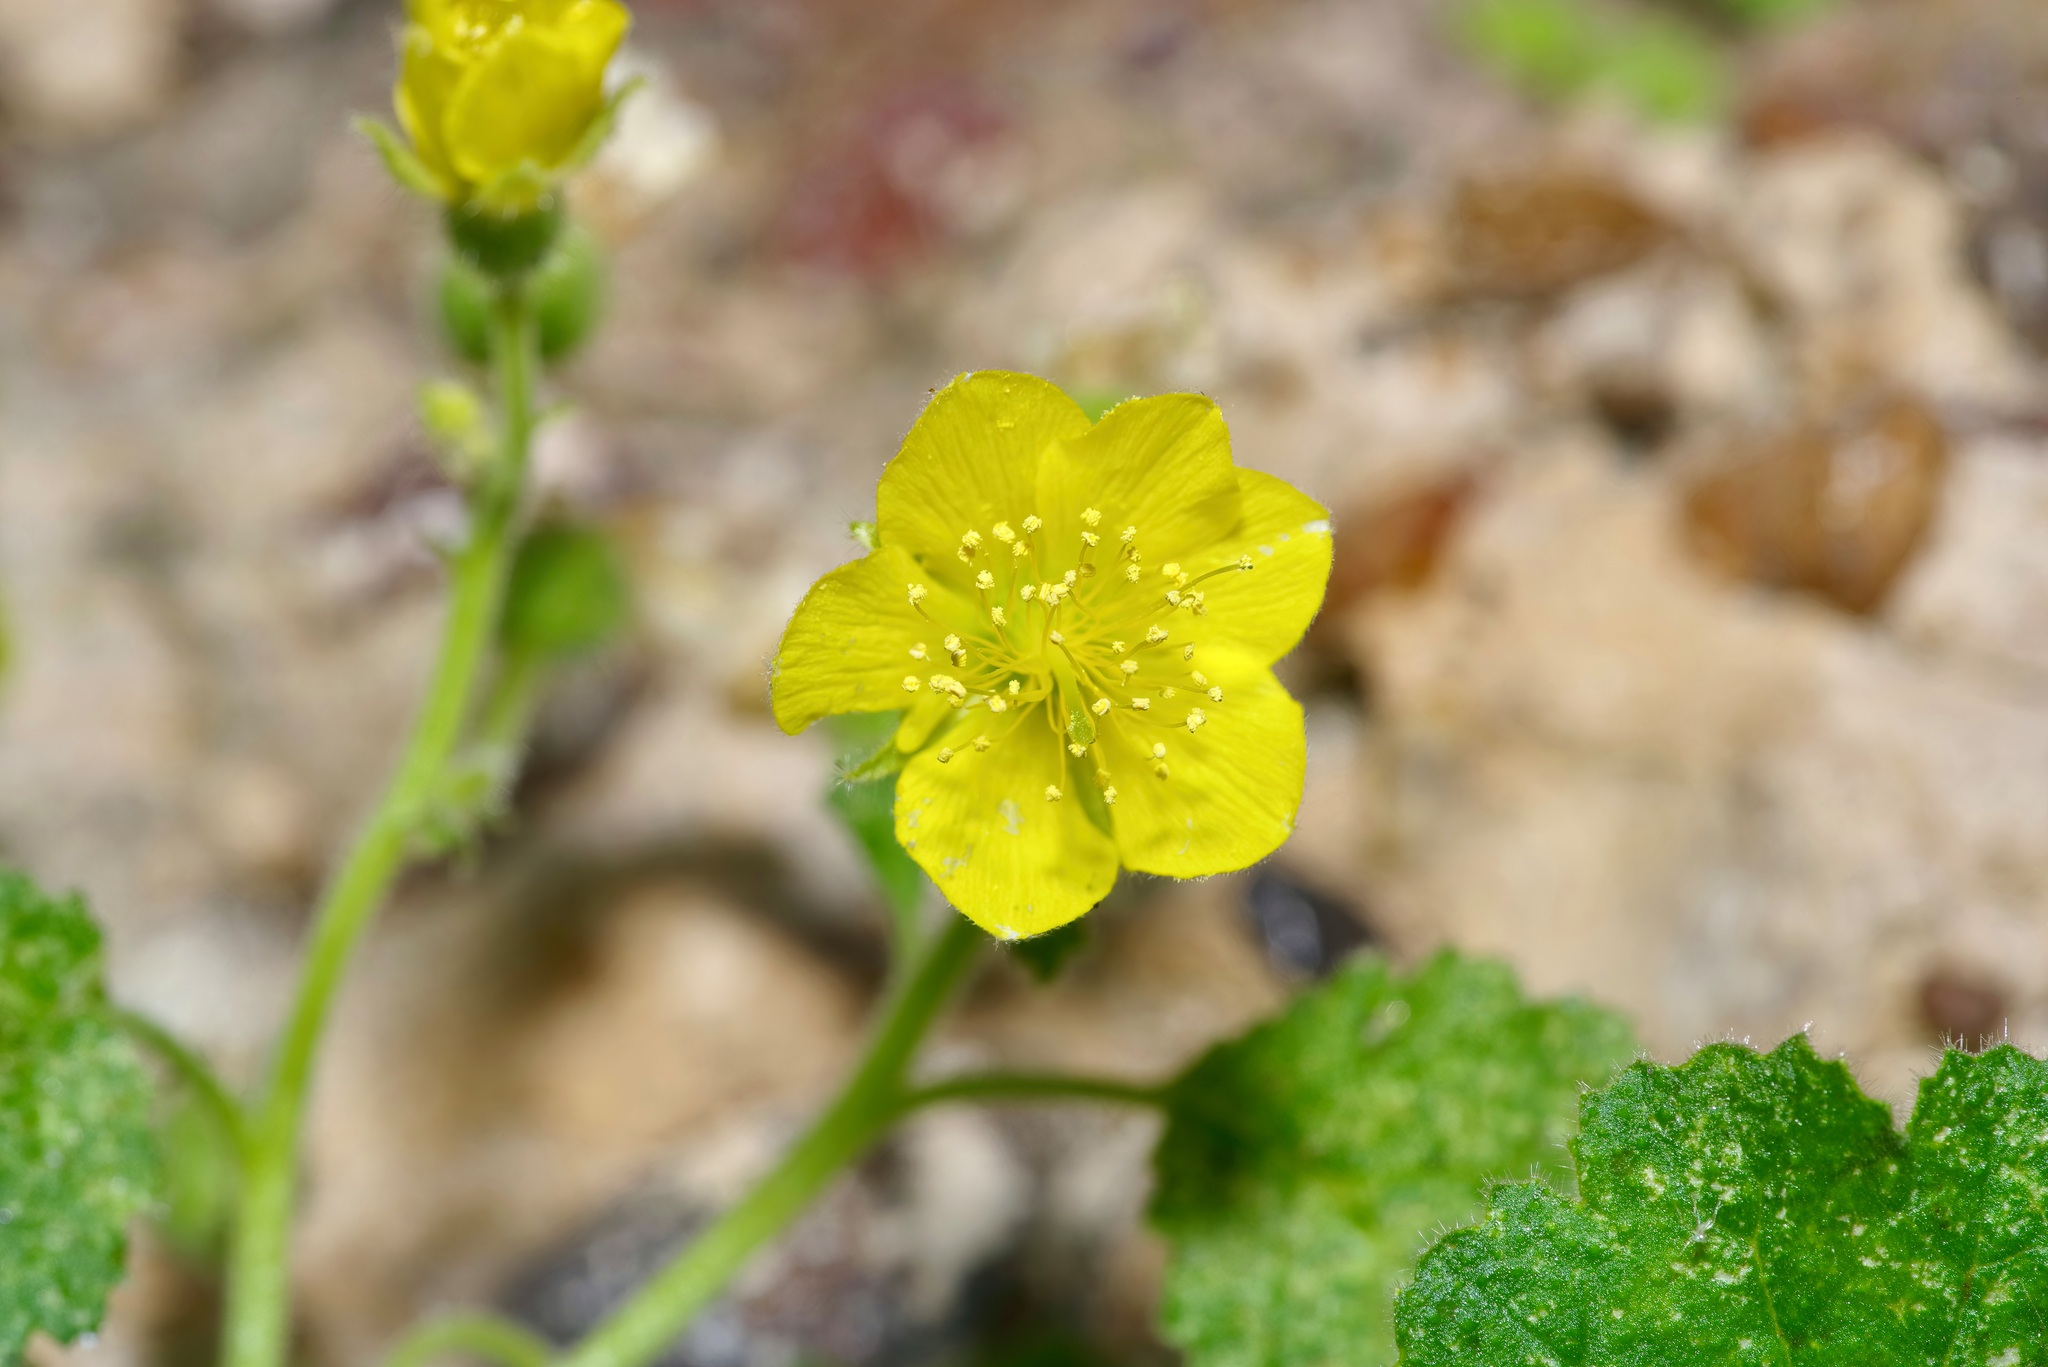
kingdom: Plantae
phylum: Tracheophyta
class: Magnoliopsida
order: Cornales
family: Loasaceae
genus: Eucnide
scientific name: Eucnide lobata
